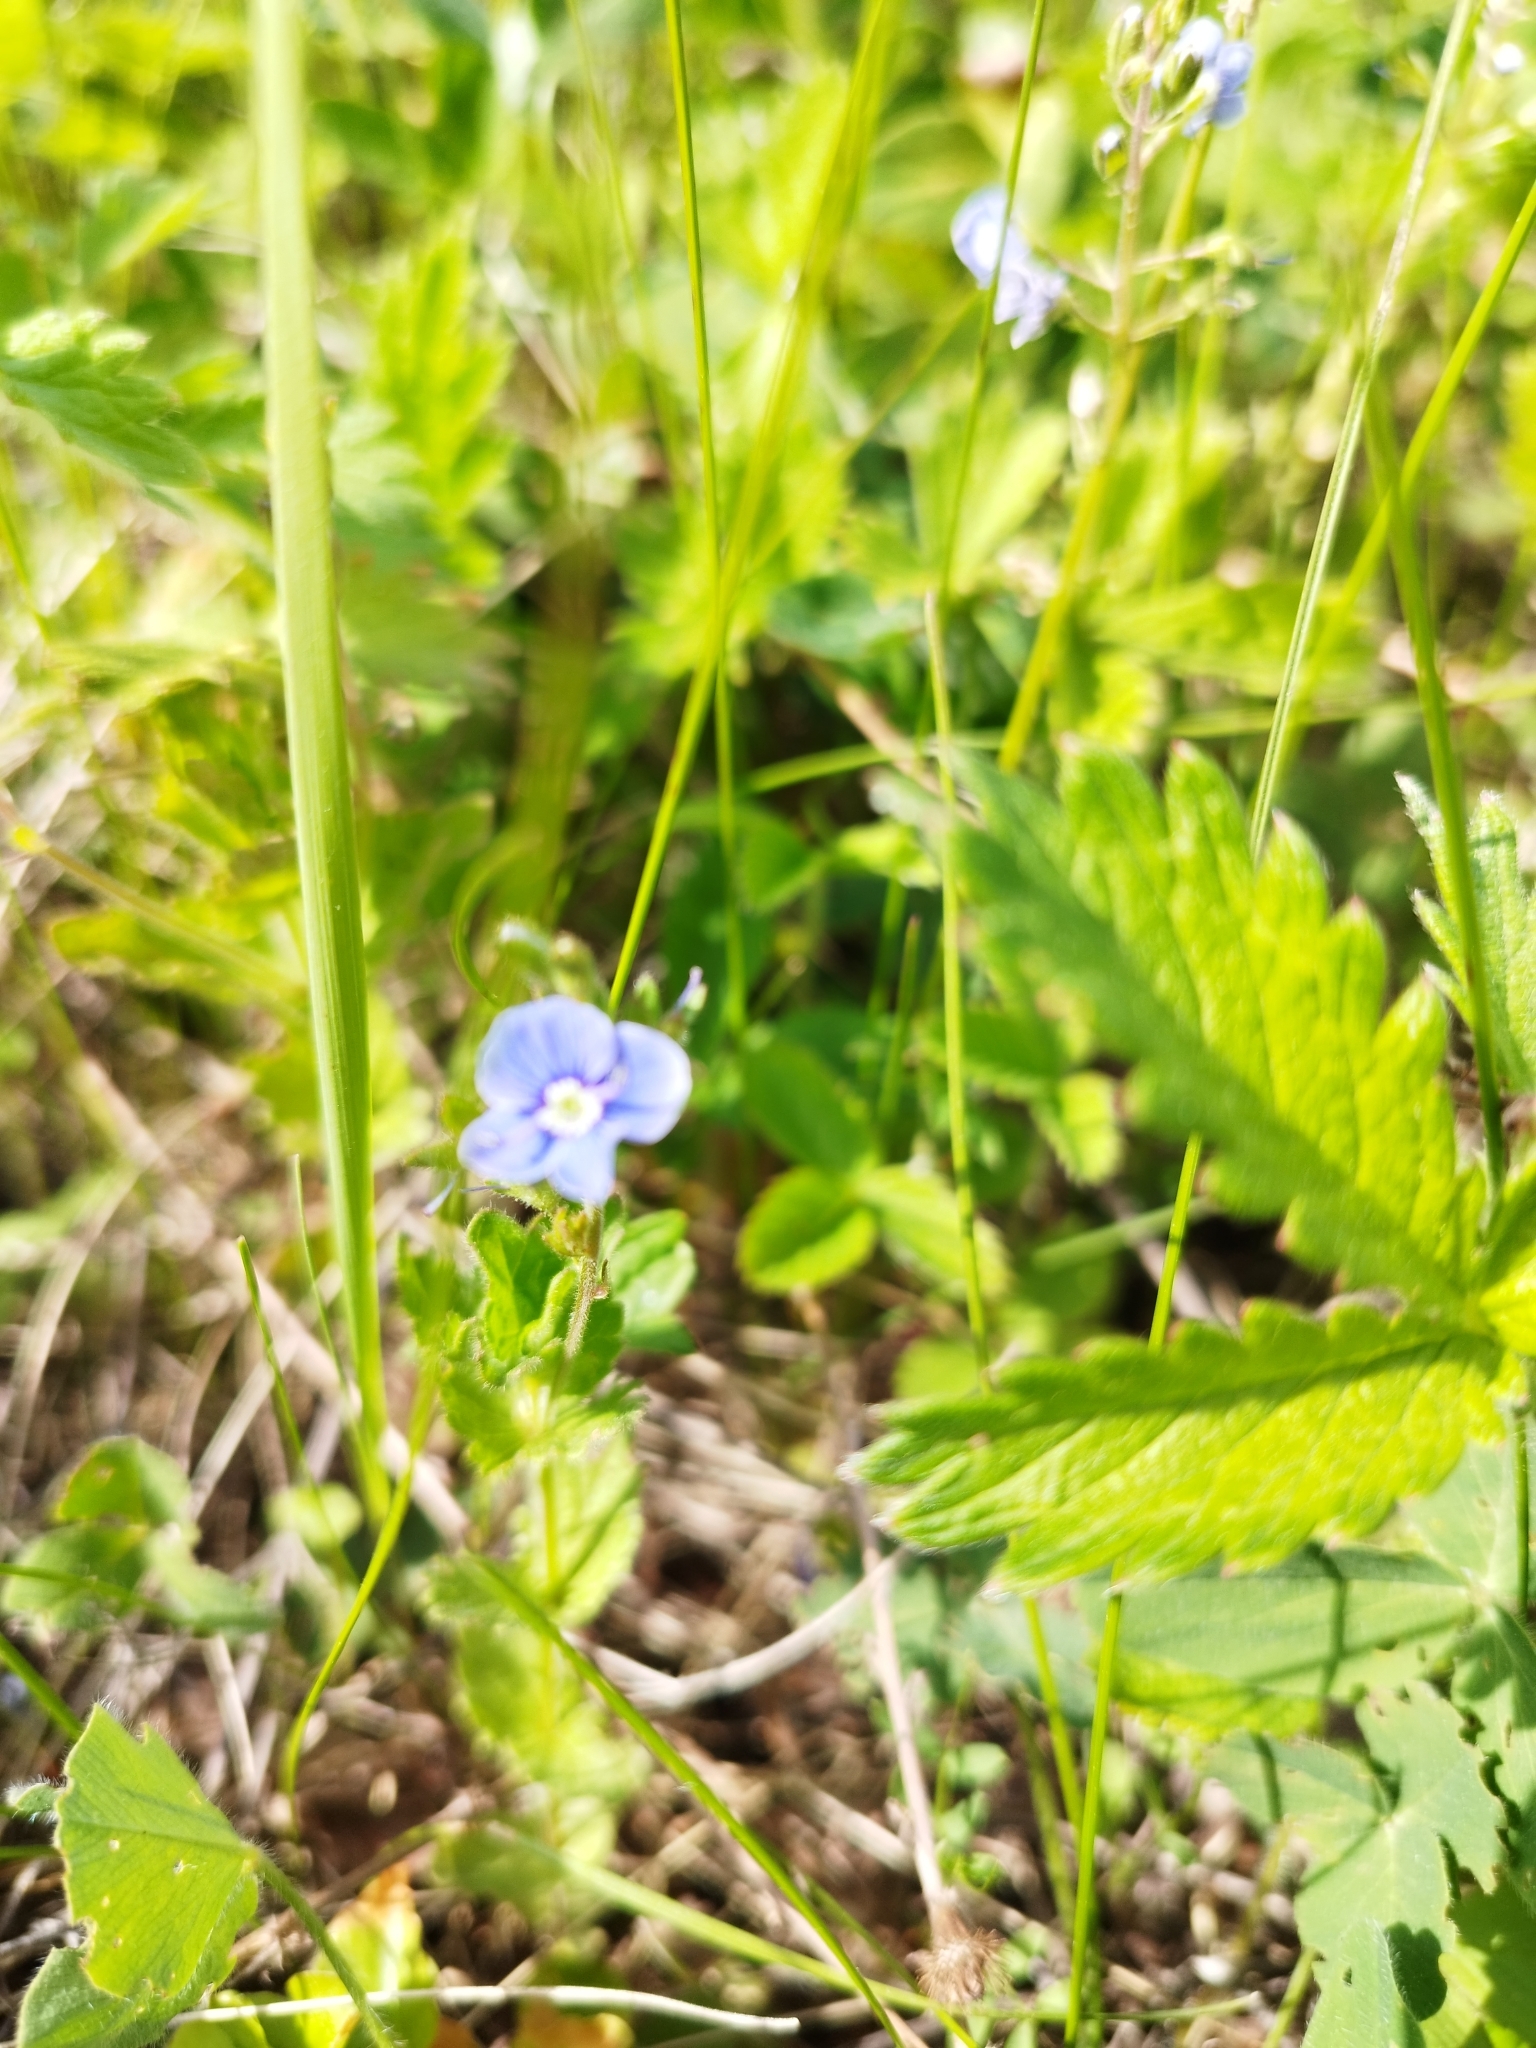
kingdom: Plantae
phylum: Tracheophyta
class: Magnoliopsida
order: Lamiales
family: Plantaginaceae
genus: Veronica
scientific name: Veronica chamaedrys
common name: Germander speedwell
